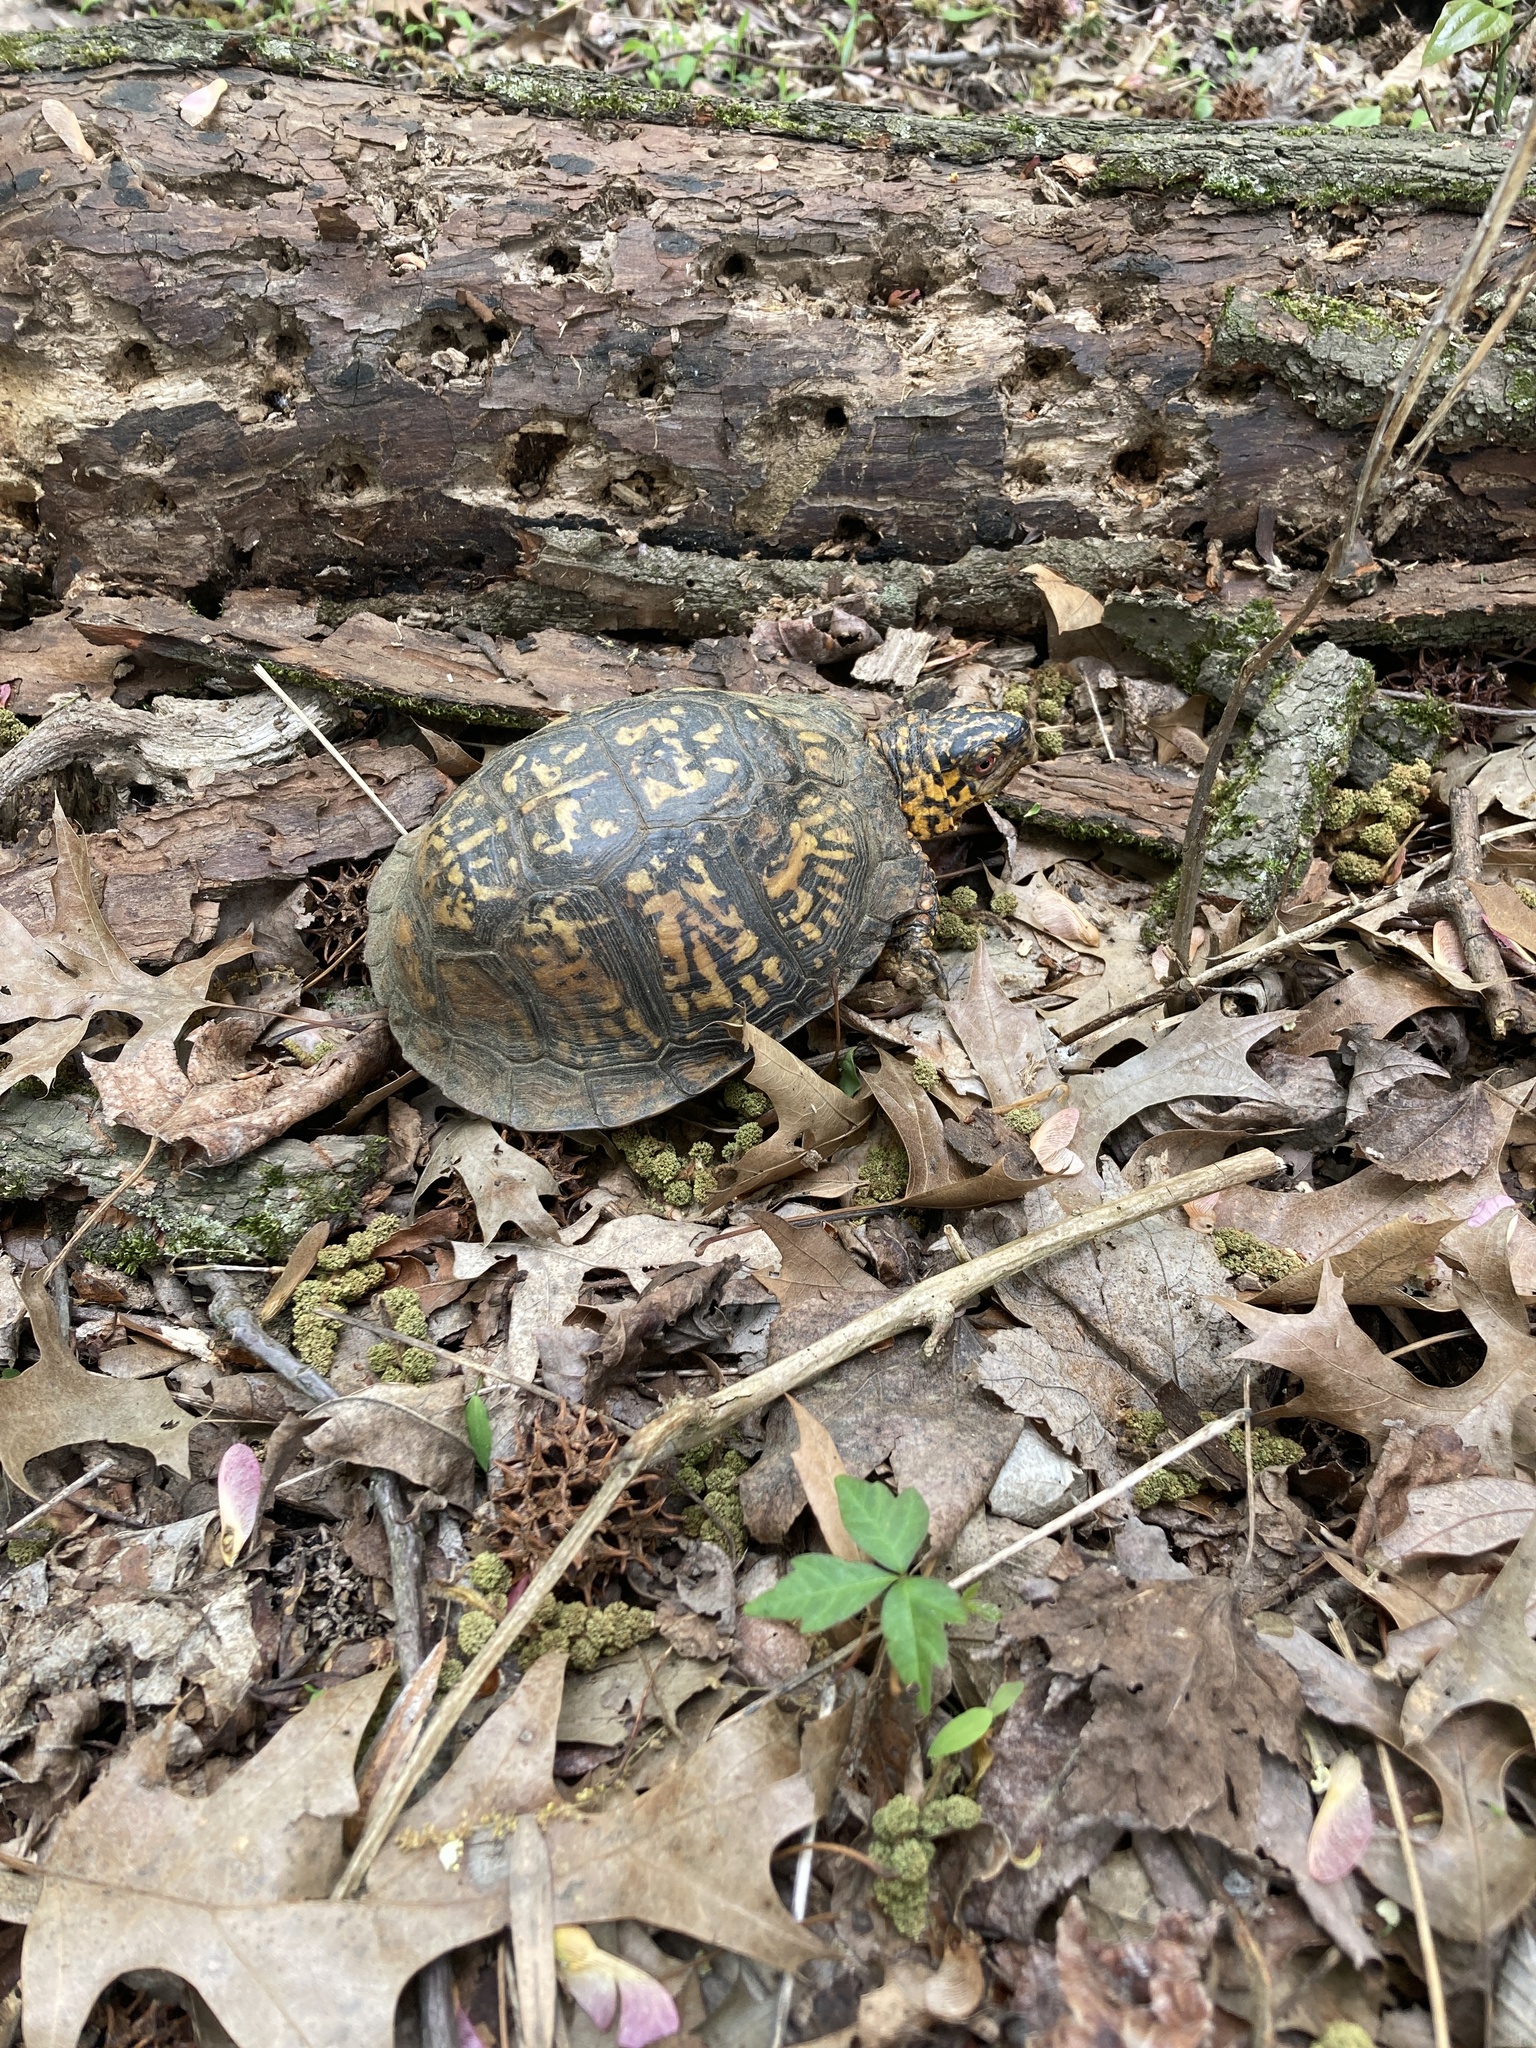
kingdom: Animalia
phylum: Chordata
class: Testudines
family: Emydidae
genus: Terrapene
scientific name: Terrapene carolina
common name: Common box turtle
